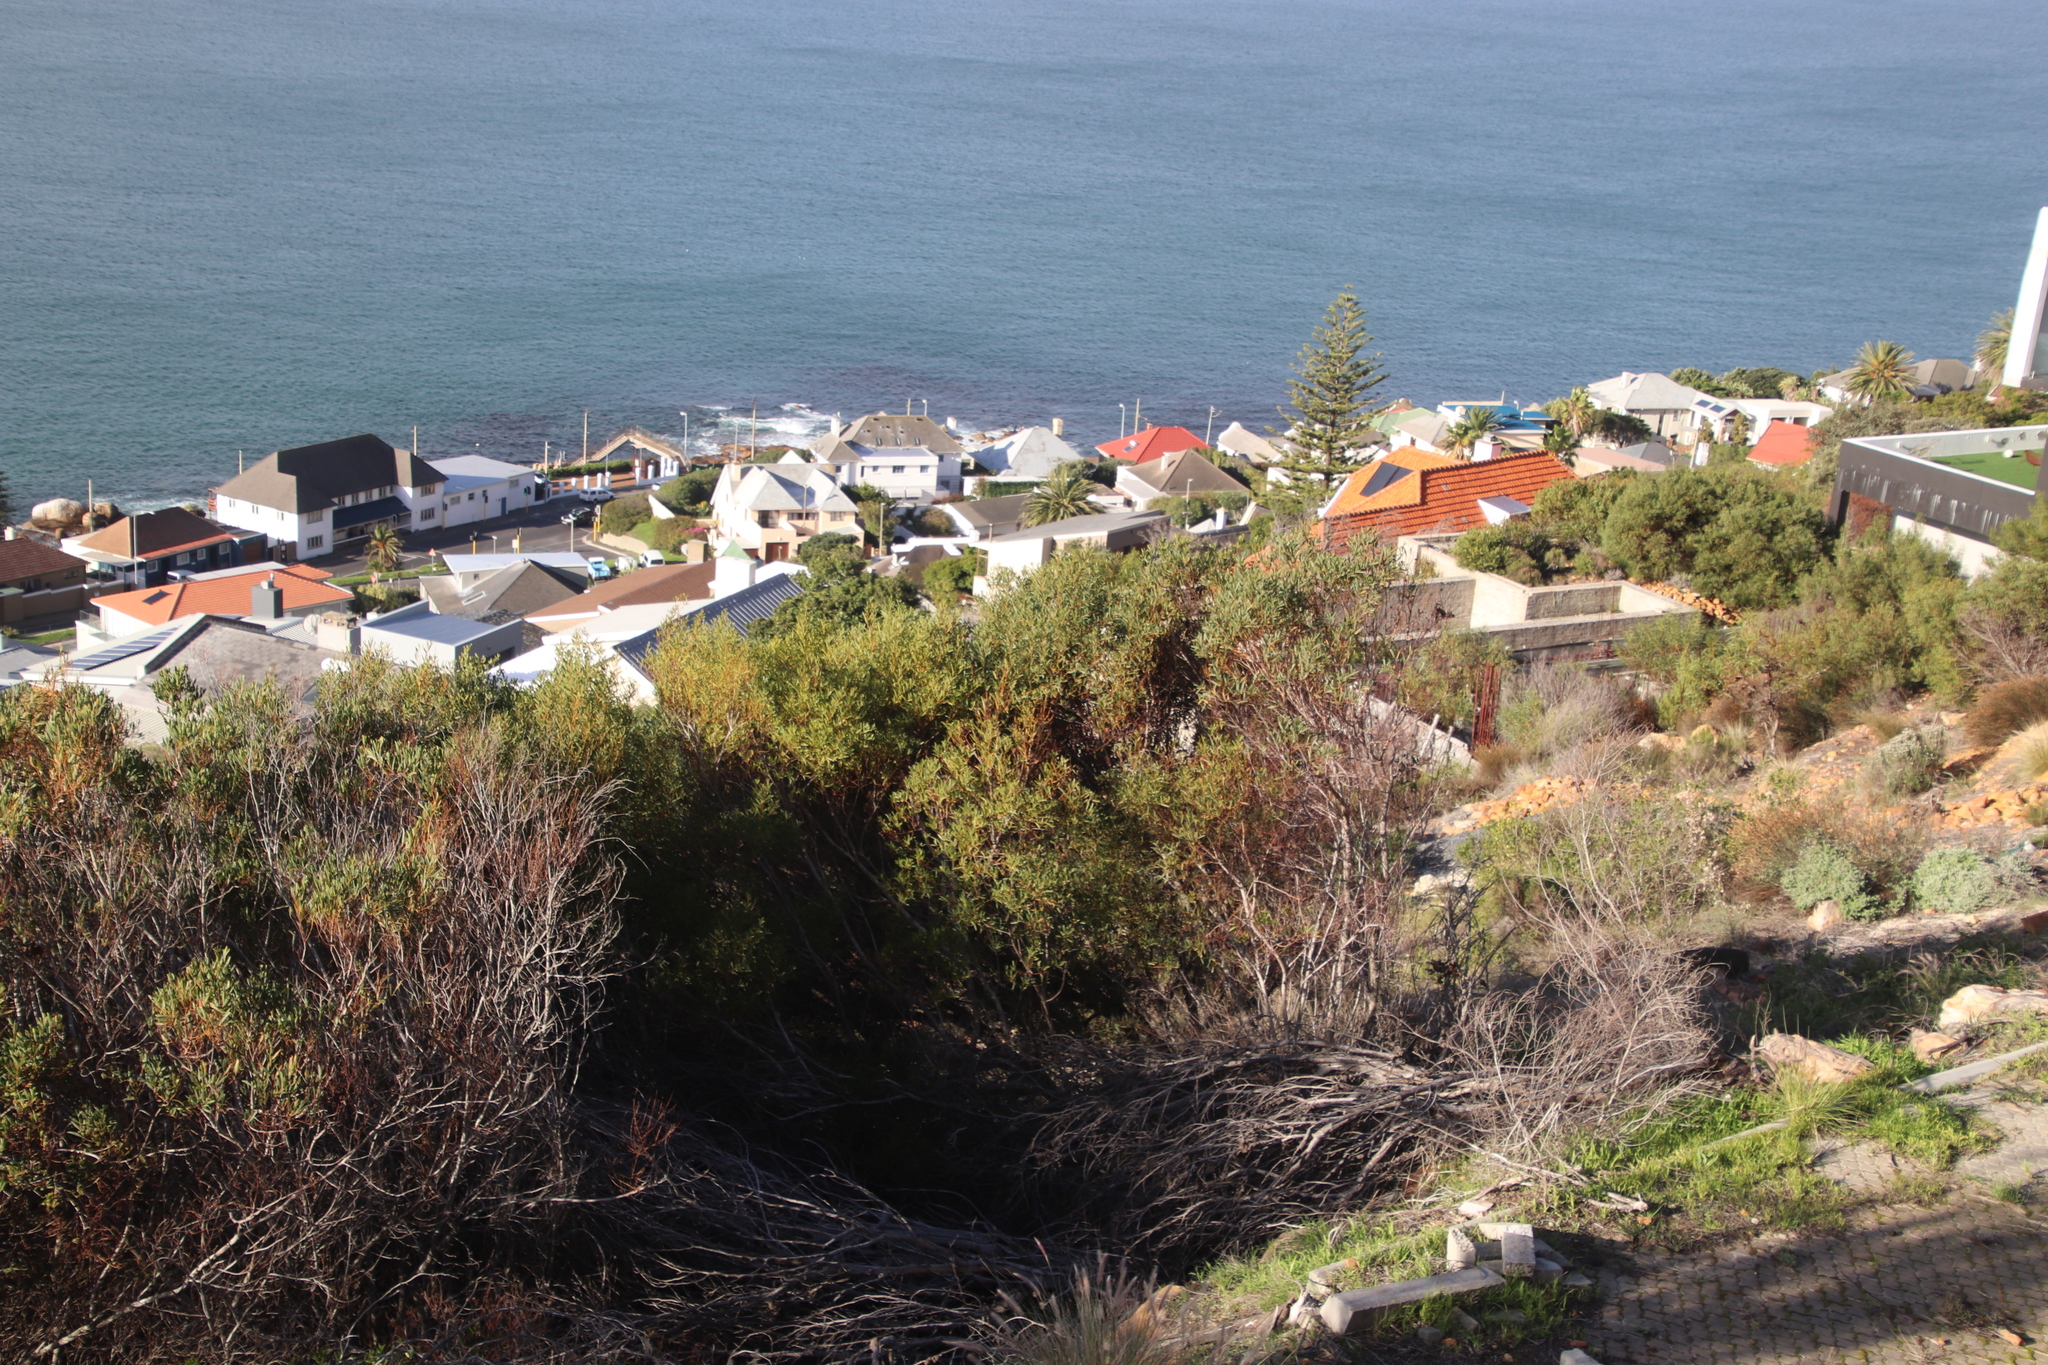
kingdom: Plantae
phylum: Tracheophyta
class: Magnoliopsida
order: Fabales
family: Fabaceae
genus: Acacia
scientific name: Acacia cyclops
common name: Coastal wattle
